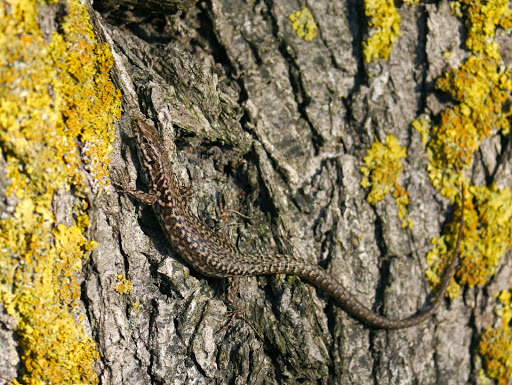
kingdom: Animalia
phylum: Chordata
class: Squamata
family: Lacertidae
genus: Podarcis
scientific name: Podarcis muralis
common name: Common wall lizard
